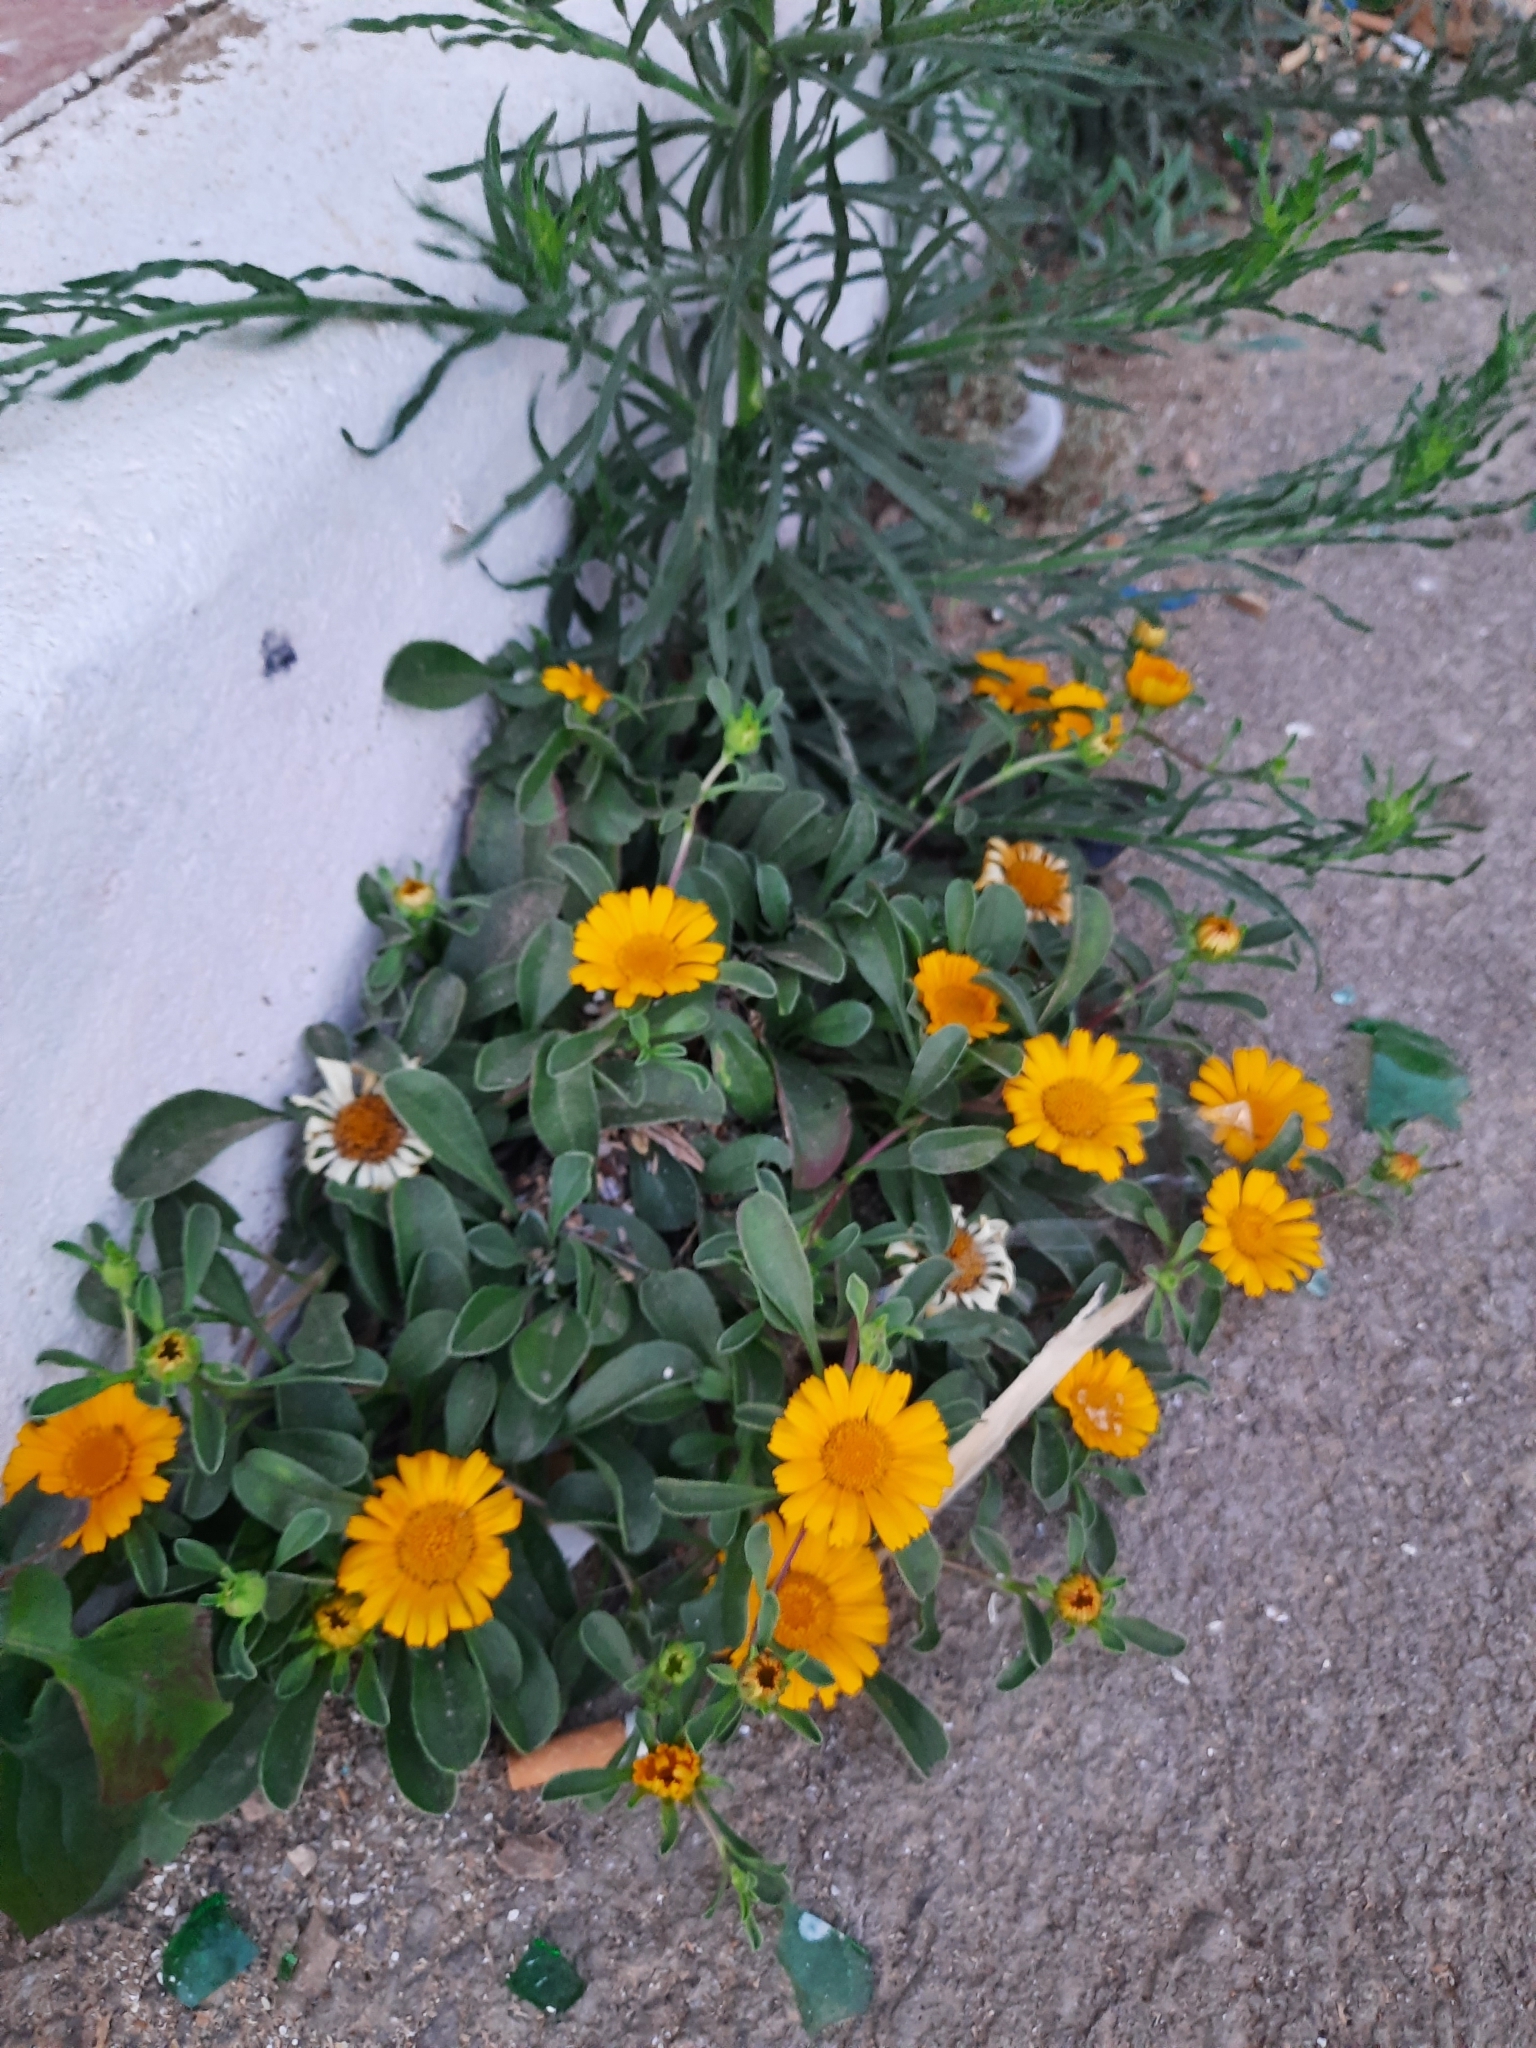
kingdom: Plantae
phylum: Tracheophyta
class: Magnoliopsida
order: Asterales
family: Asteraceae
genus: Pallenis
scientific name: Pallenis maritima
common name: Golden coin daisy
